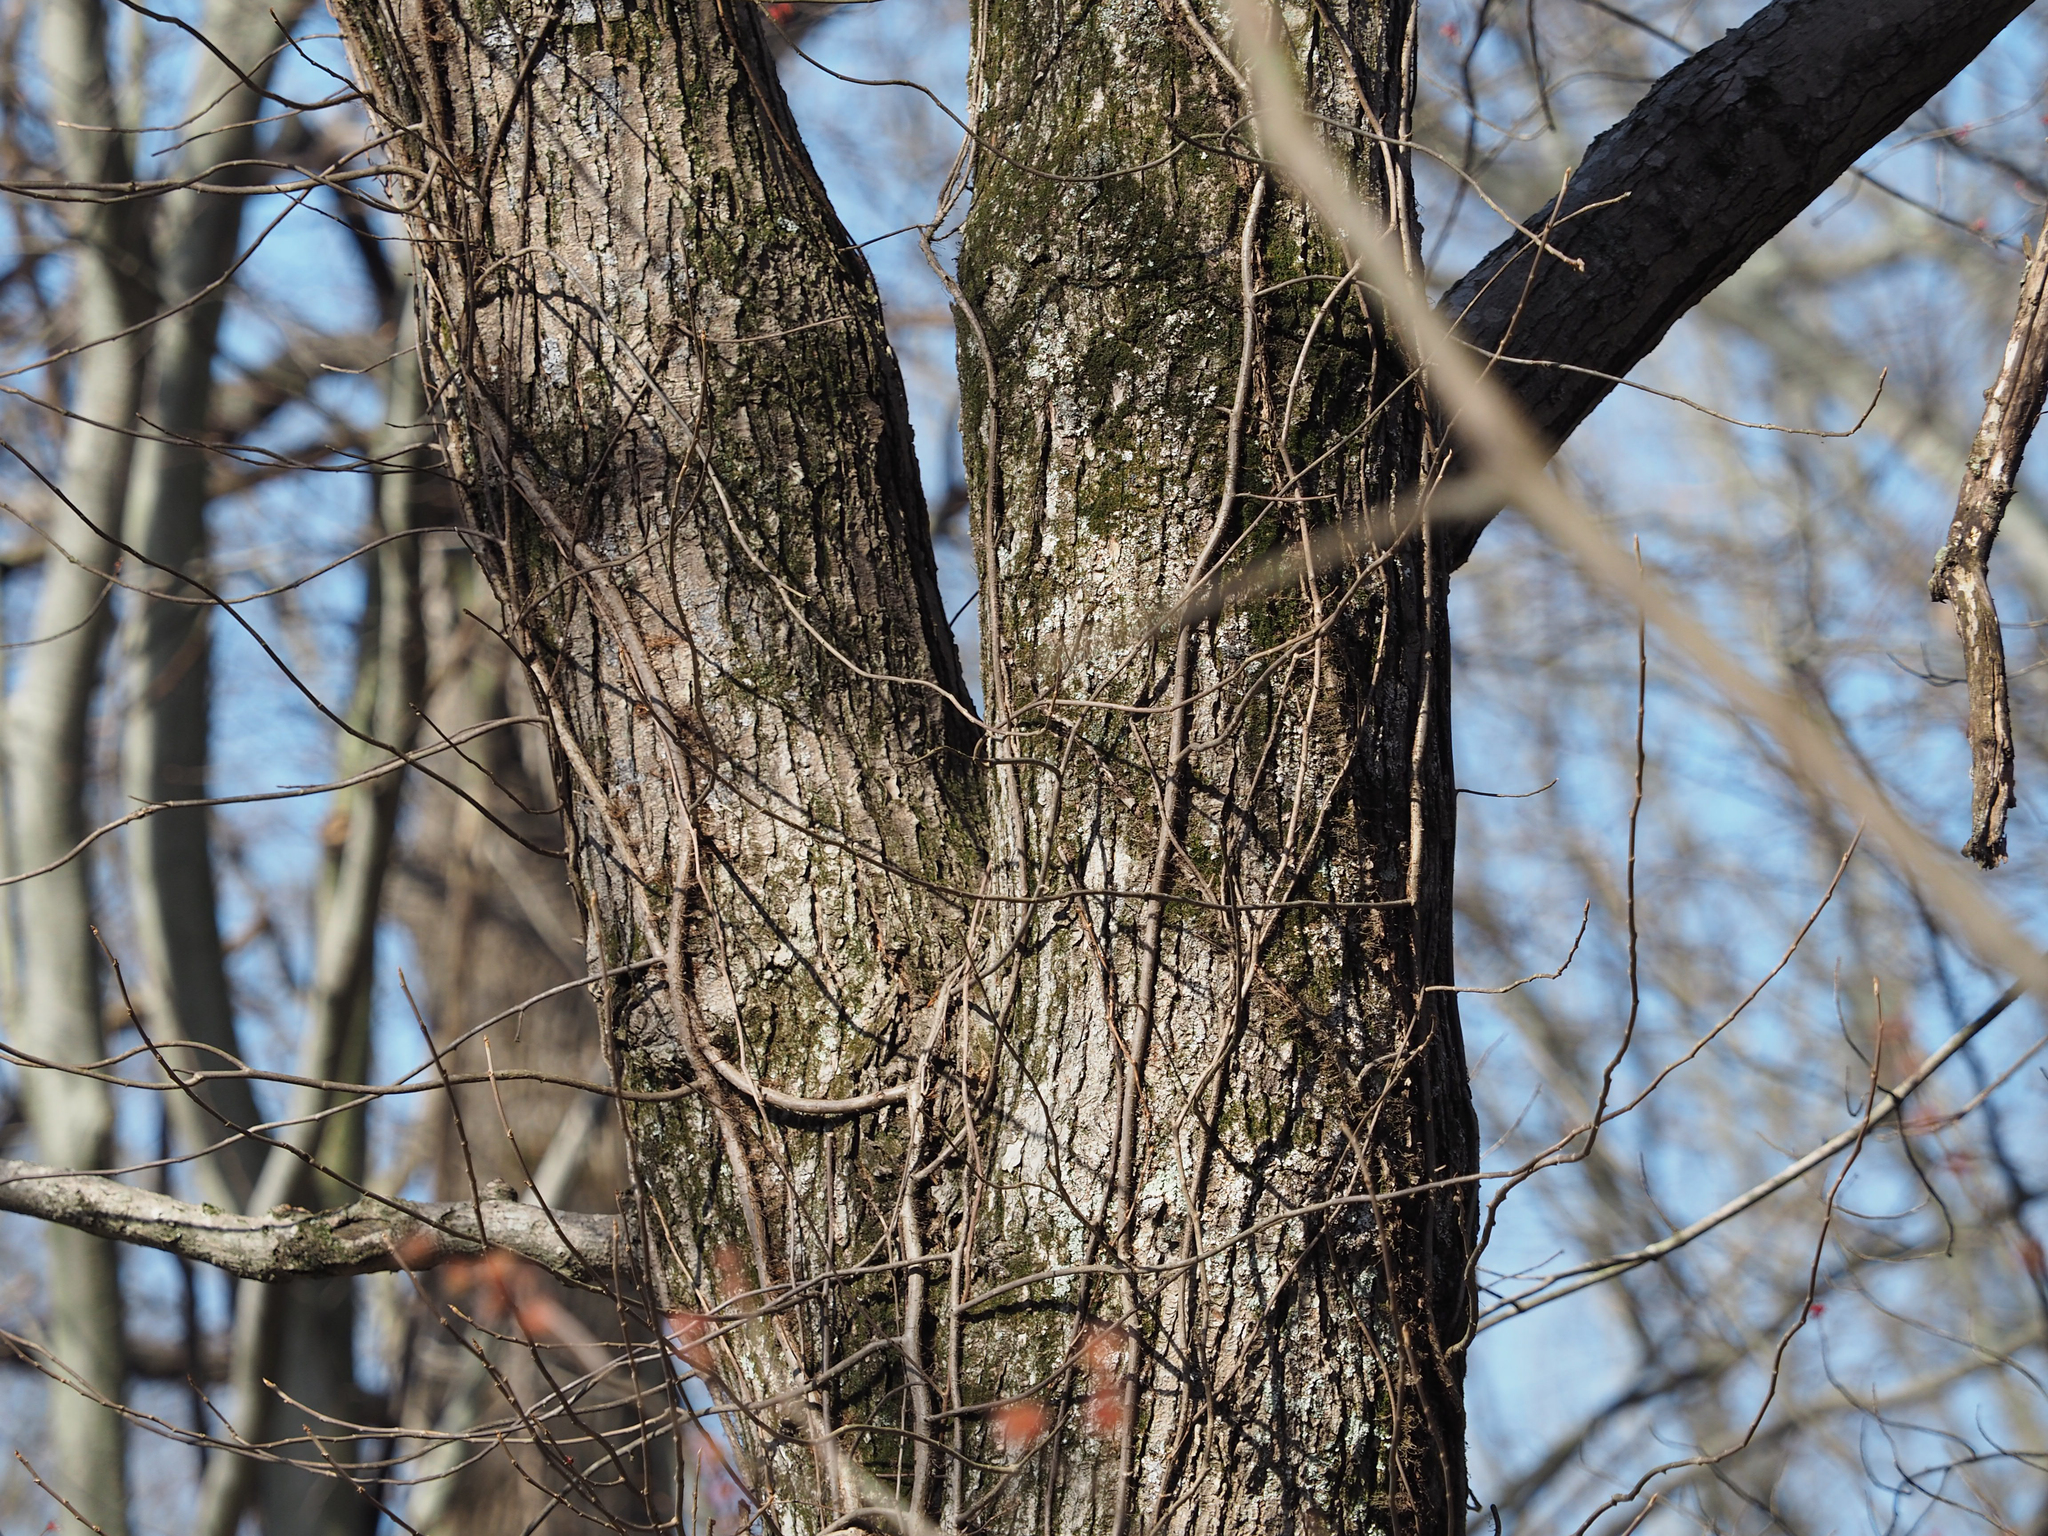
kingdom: Plantae
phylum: Tracheophyta
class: Magnoliopsida
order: Sapindales
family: Sapindaceae
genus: Acer
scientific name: Acer rubrum
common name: Red maple
